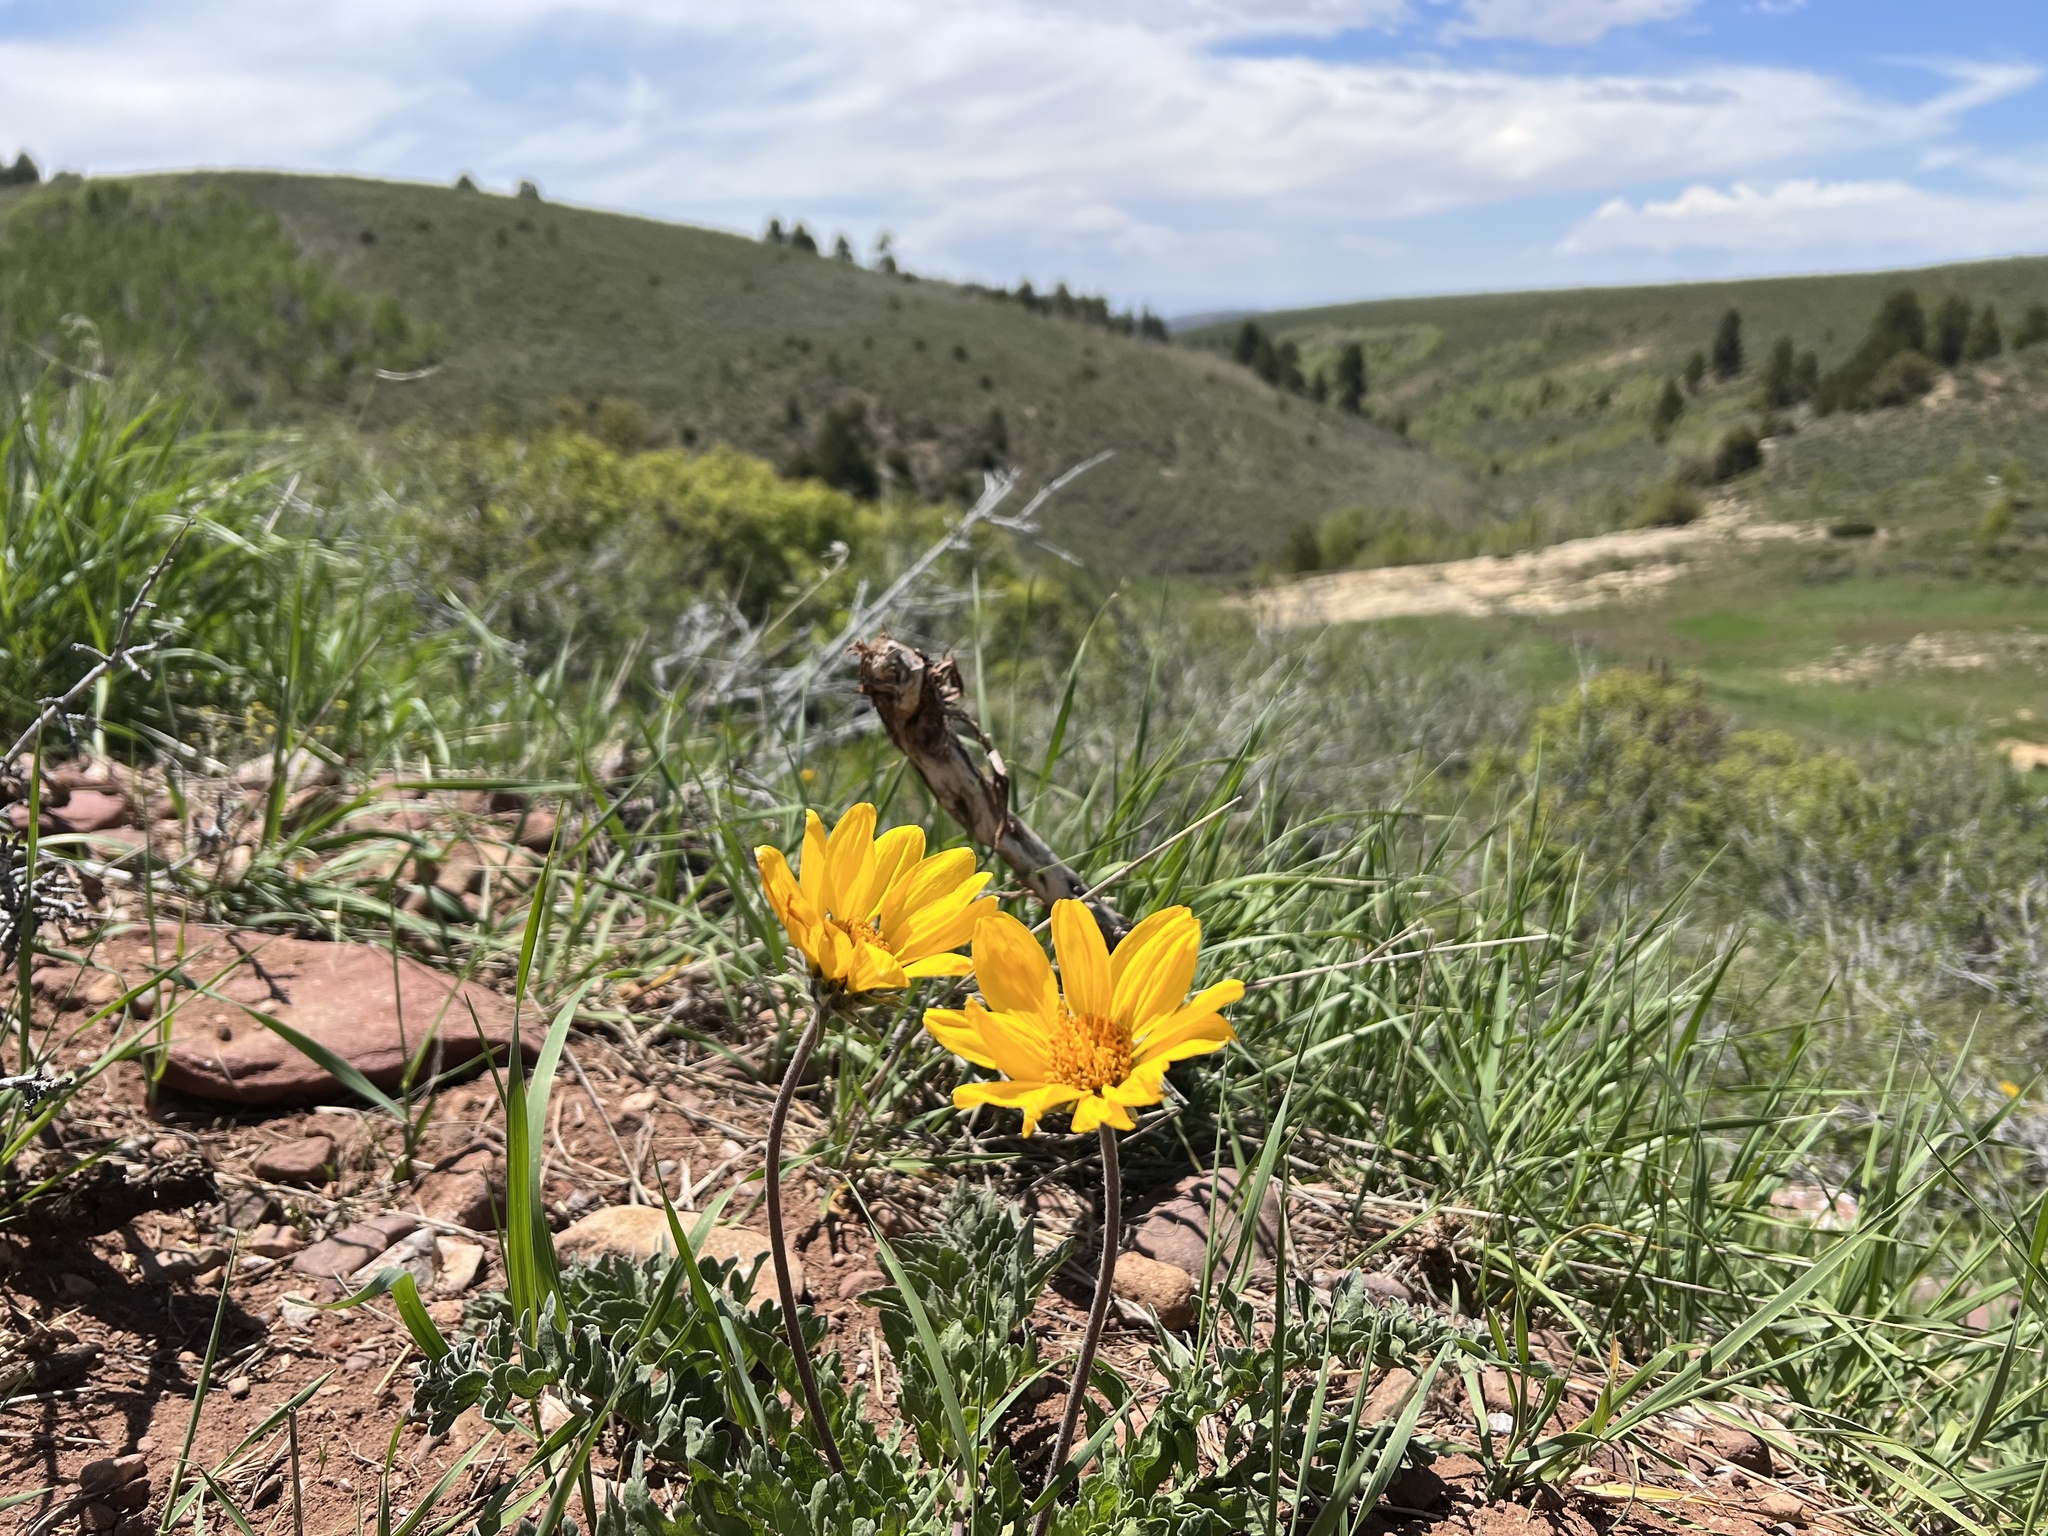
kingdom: Plantae
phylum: Tracheophyta
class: Magnoliopsida
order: Asterales
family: Asteraceae
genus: Balsamorhiza
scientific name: Balsamorhiza hookeri
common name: Hooker's balsamroot
